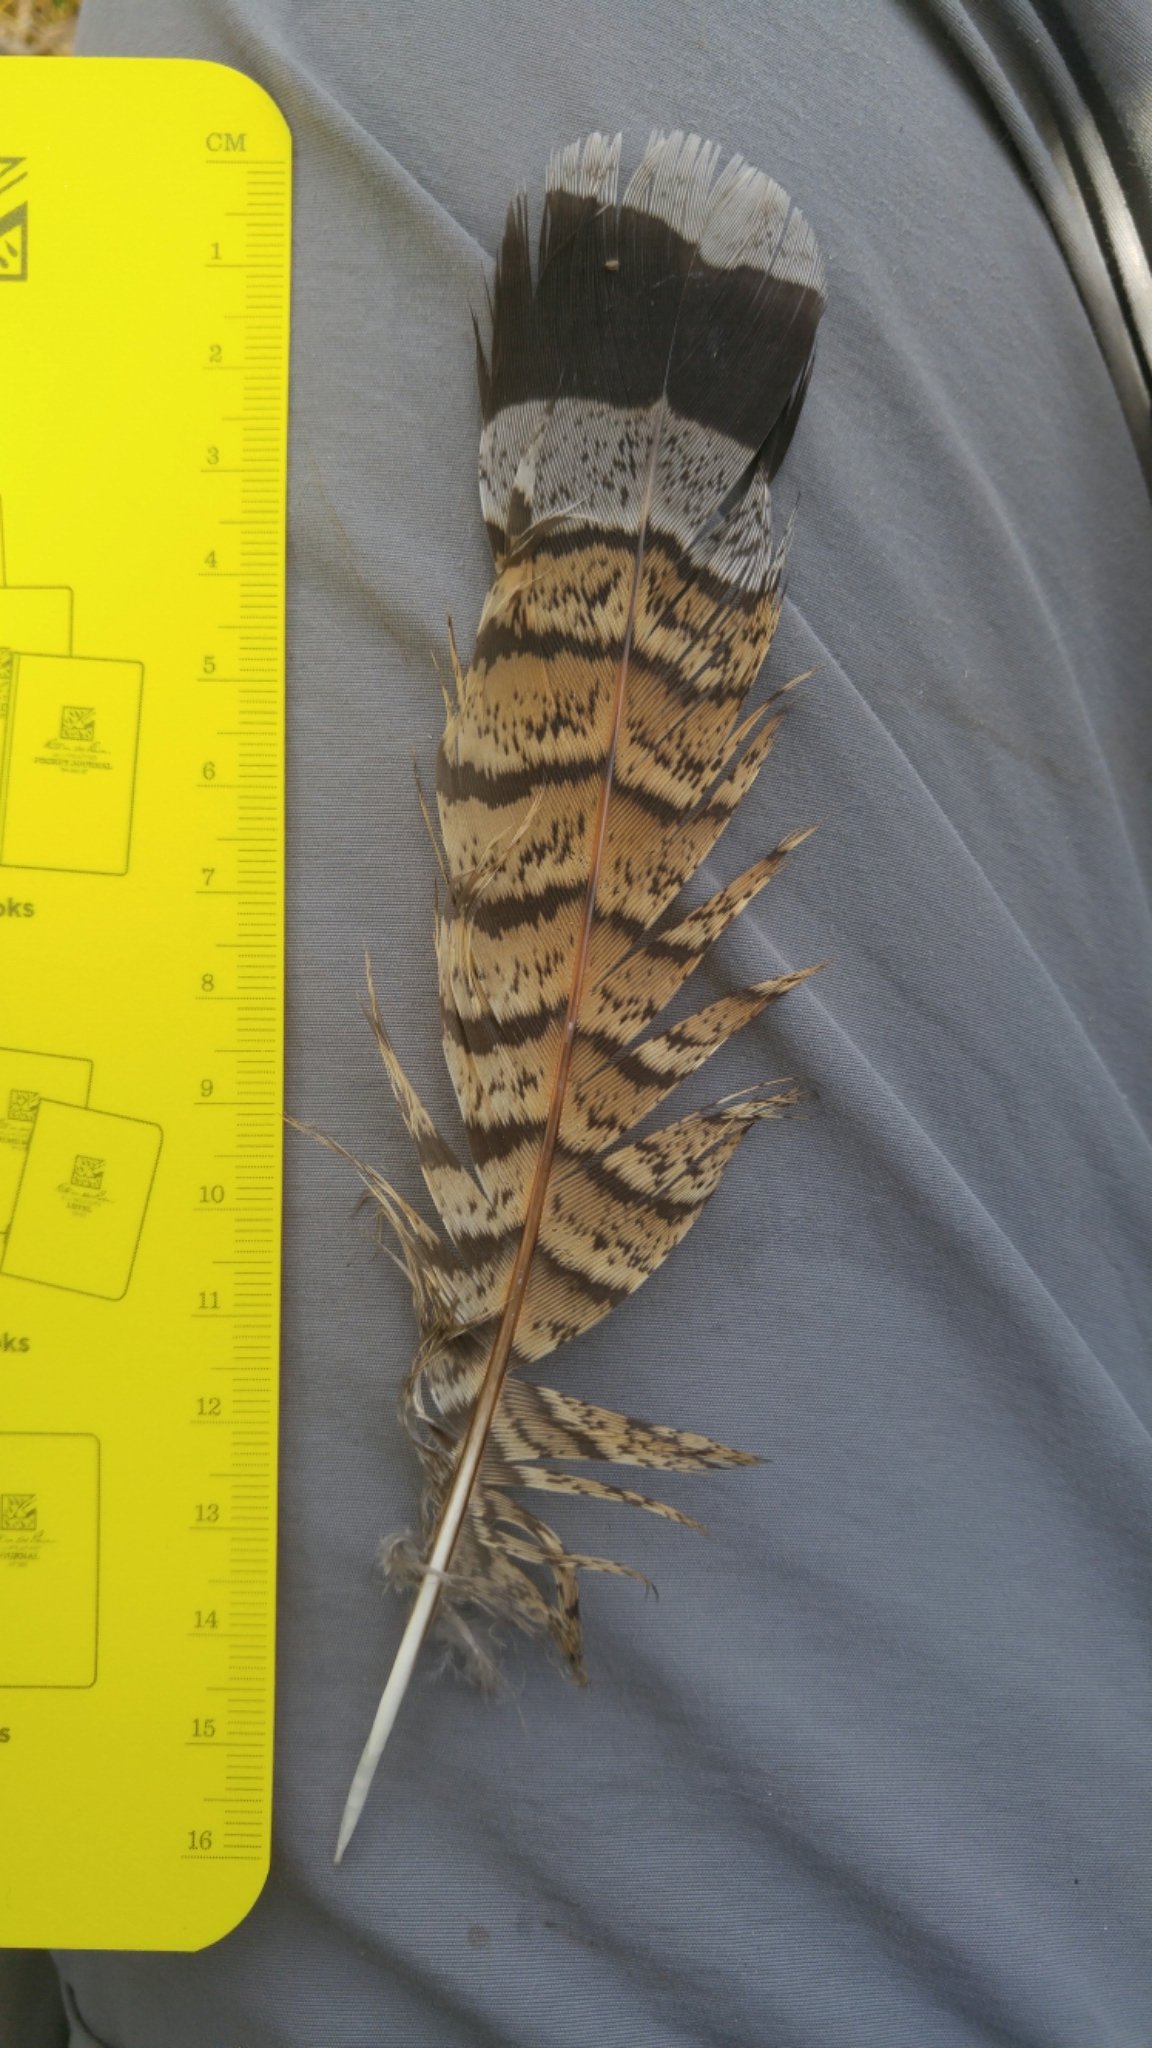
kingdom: Animalia
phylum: Chordata
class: Aves
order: Galliformes
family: Phasianidae
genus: Bonasa
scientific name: Bonasa umbellus
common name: Ruffed grouse
